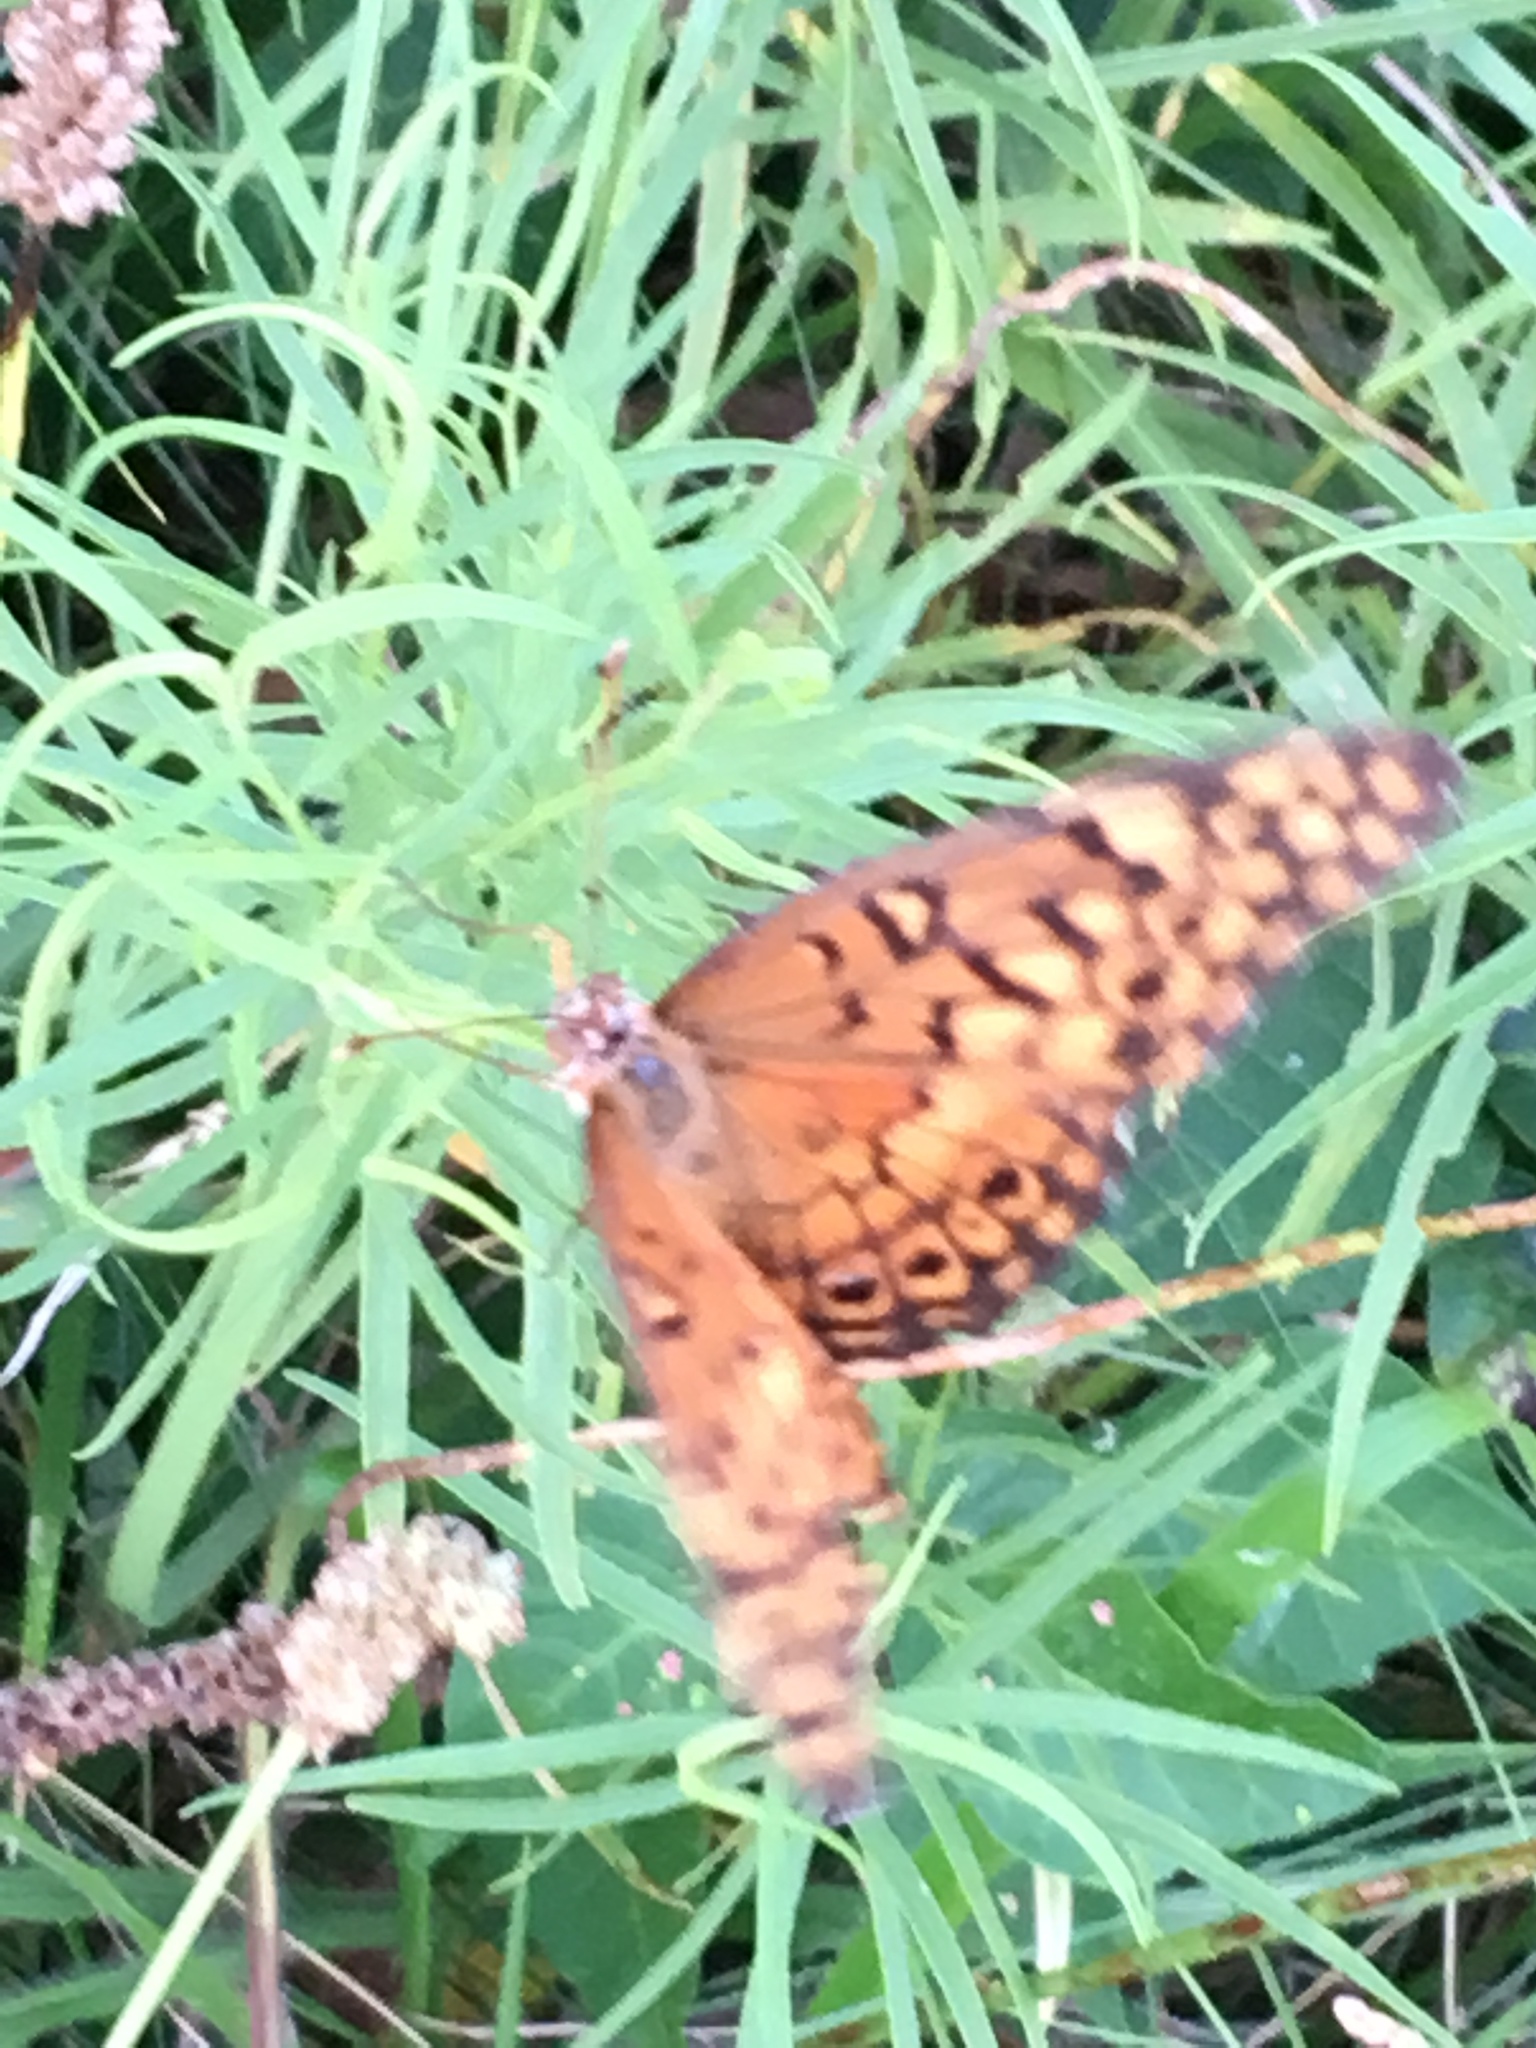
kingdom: Animalia
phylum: Arthropoda
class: Insecta
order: Lepidoptera
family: Nymphalidae
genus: Euptoieta
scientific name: Euptoieta claudia
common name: Variegated fritillary
